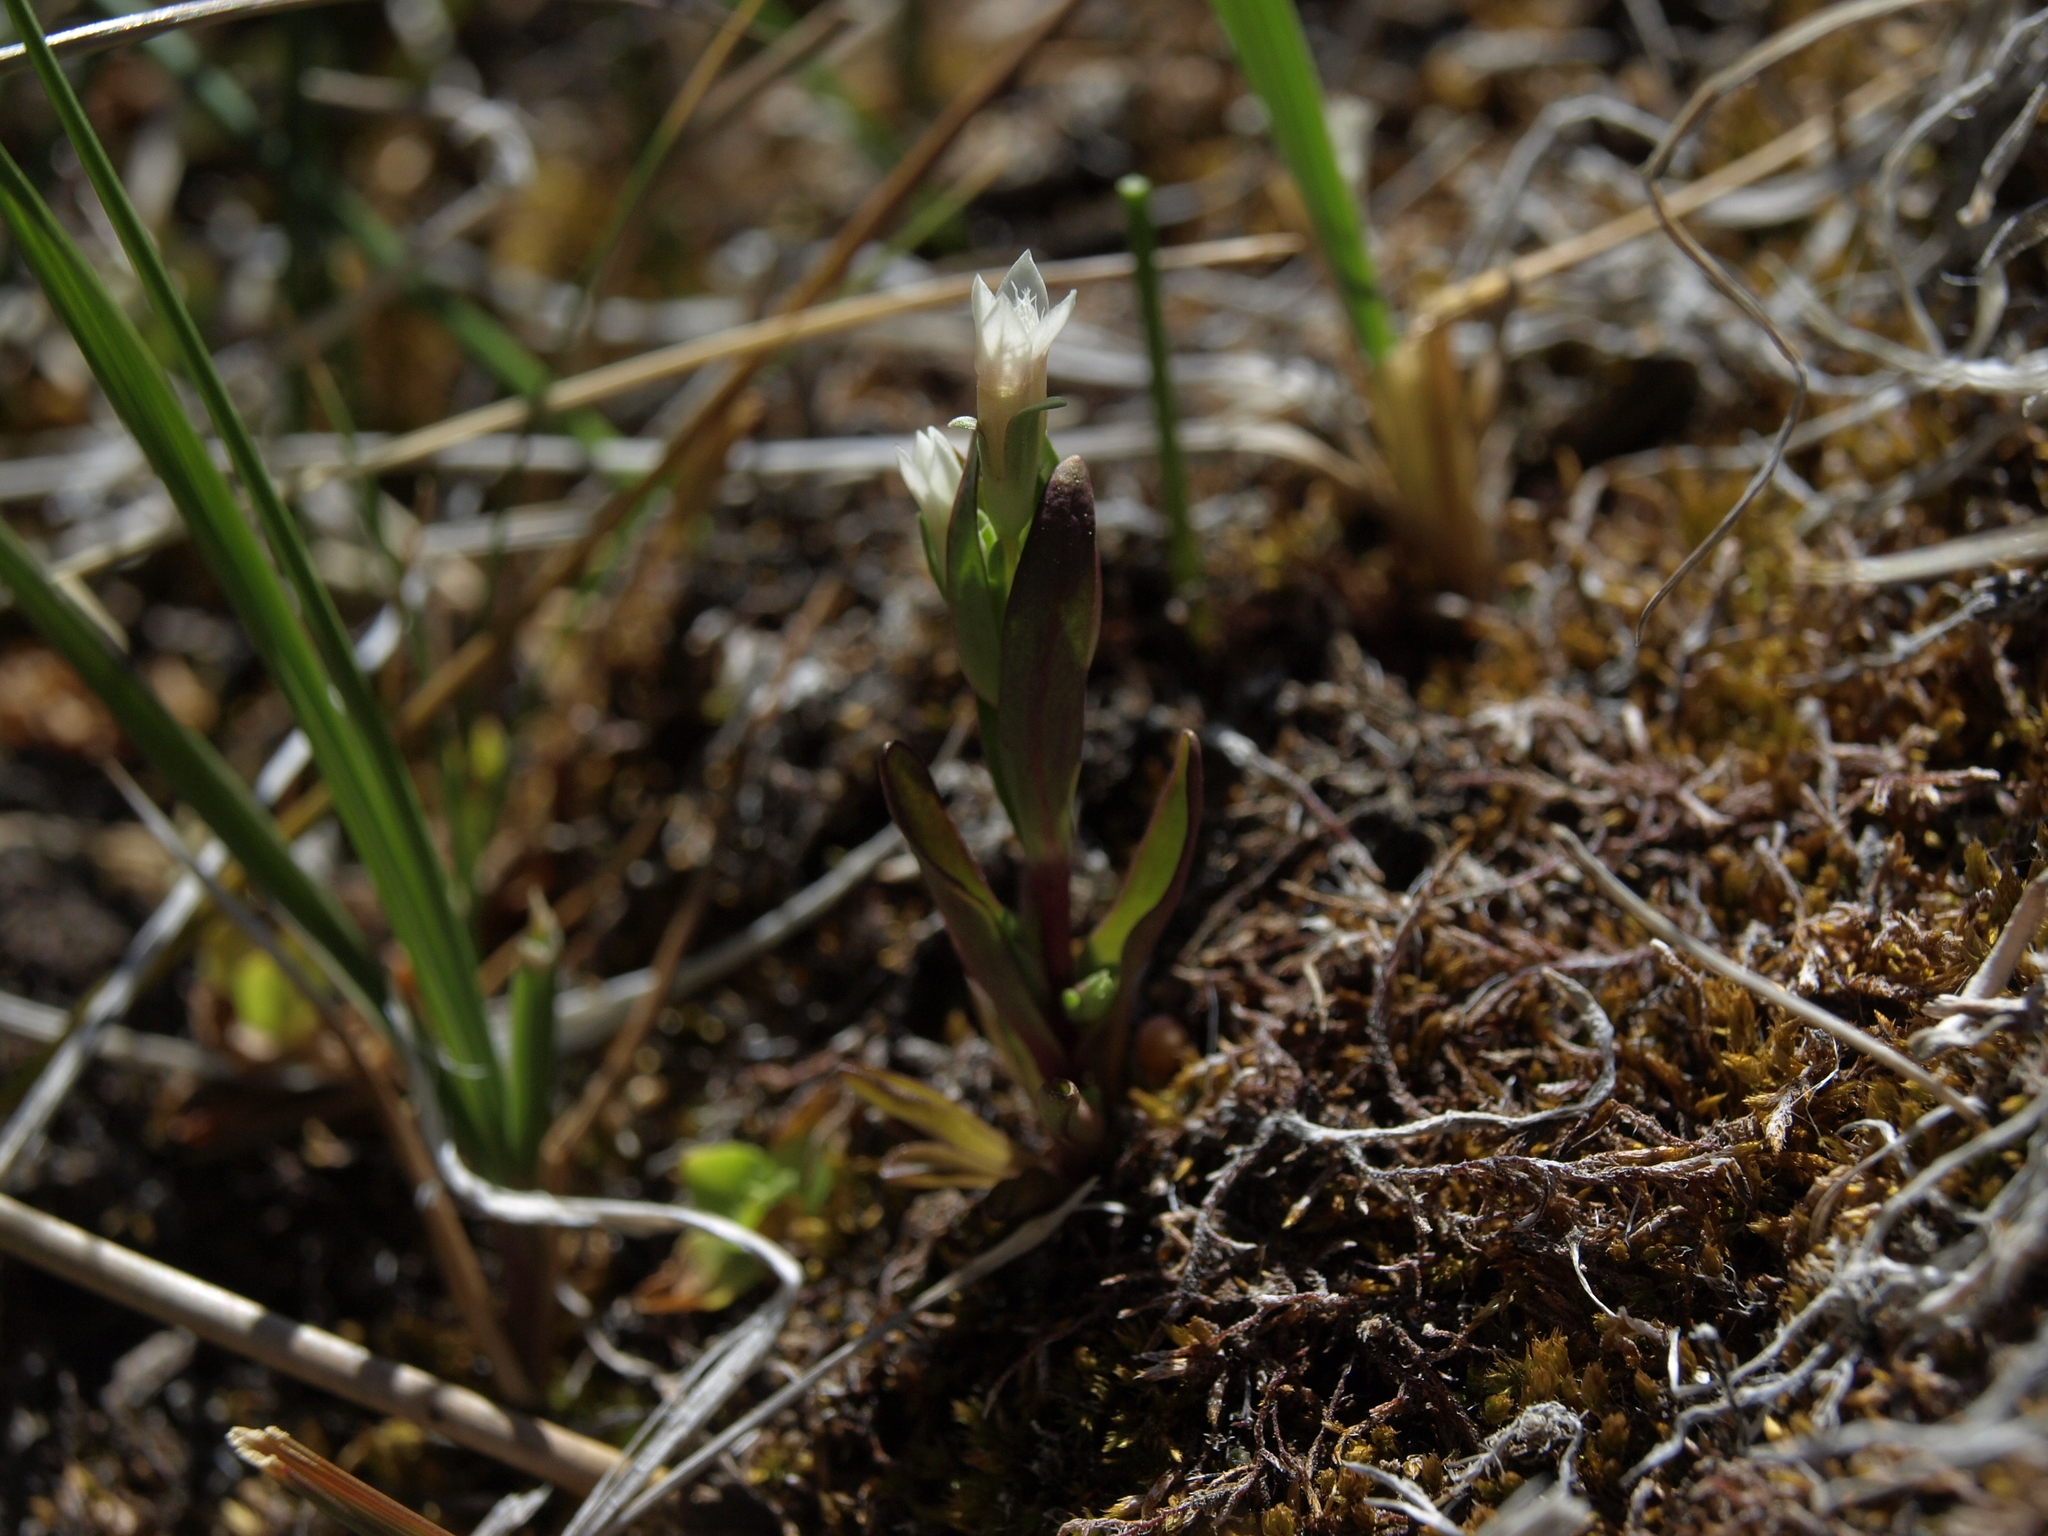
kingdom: Plantae
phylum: Tracheophyta
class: Magnoliopsida
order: Gentianales
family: Gentianaceae
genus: Gentianella
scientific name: Gentianella amarella
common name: Autumn gentian
